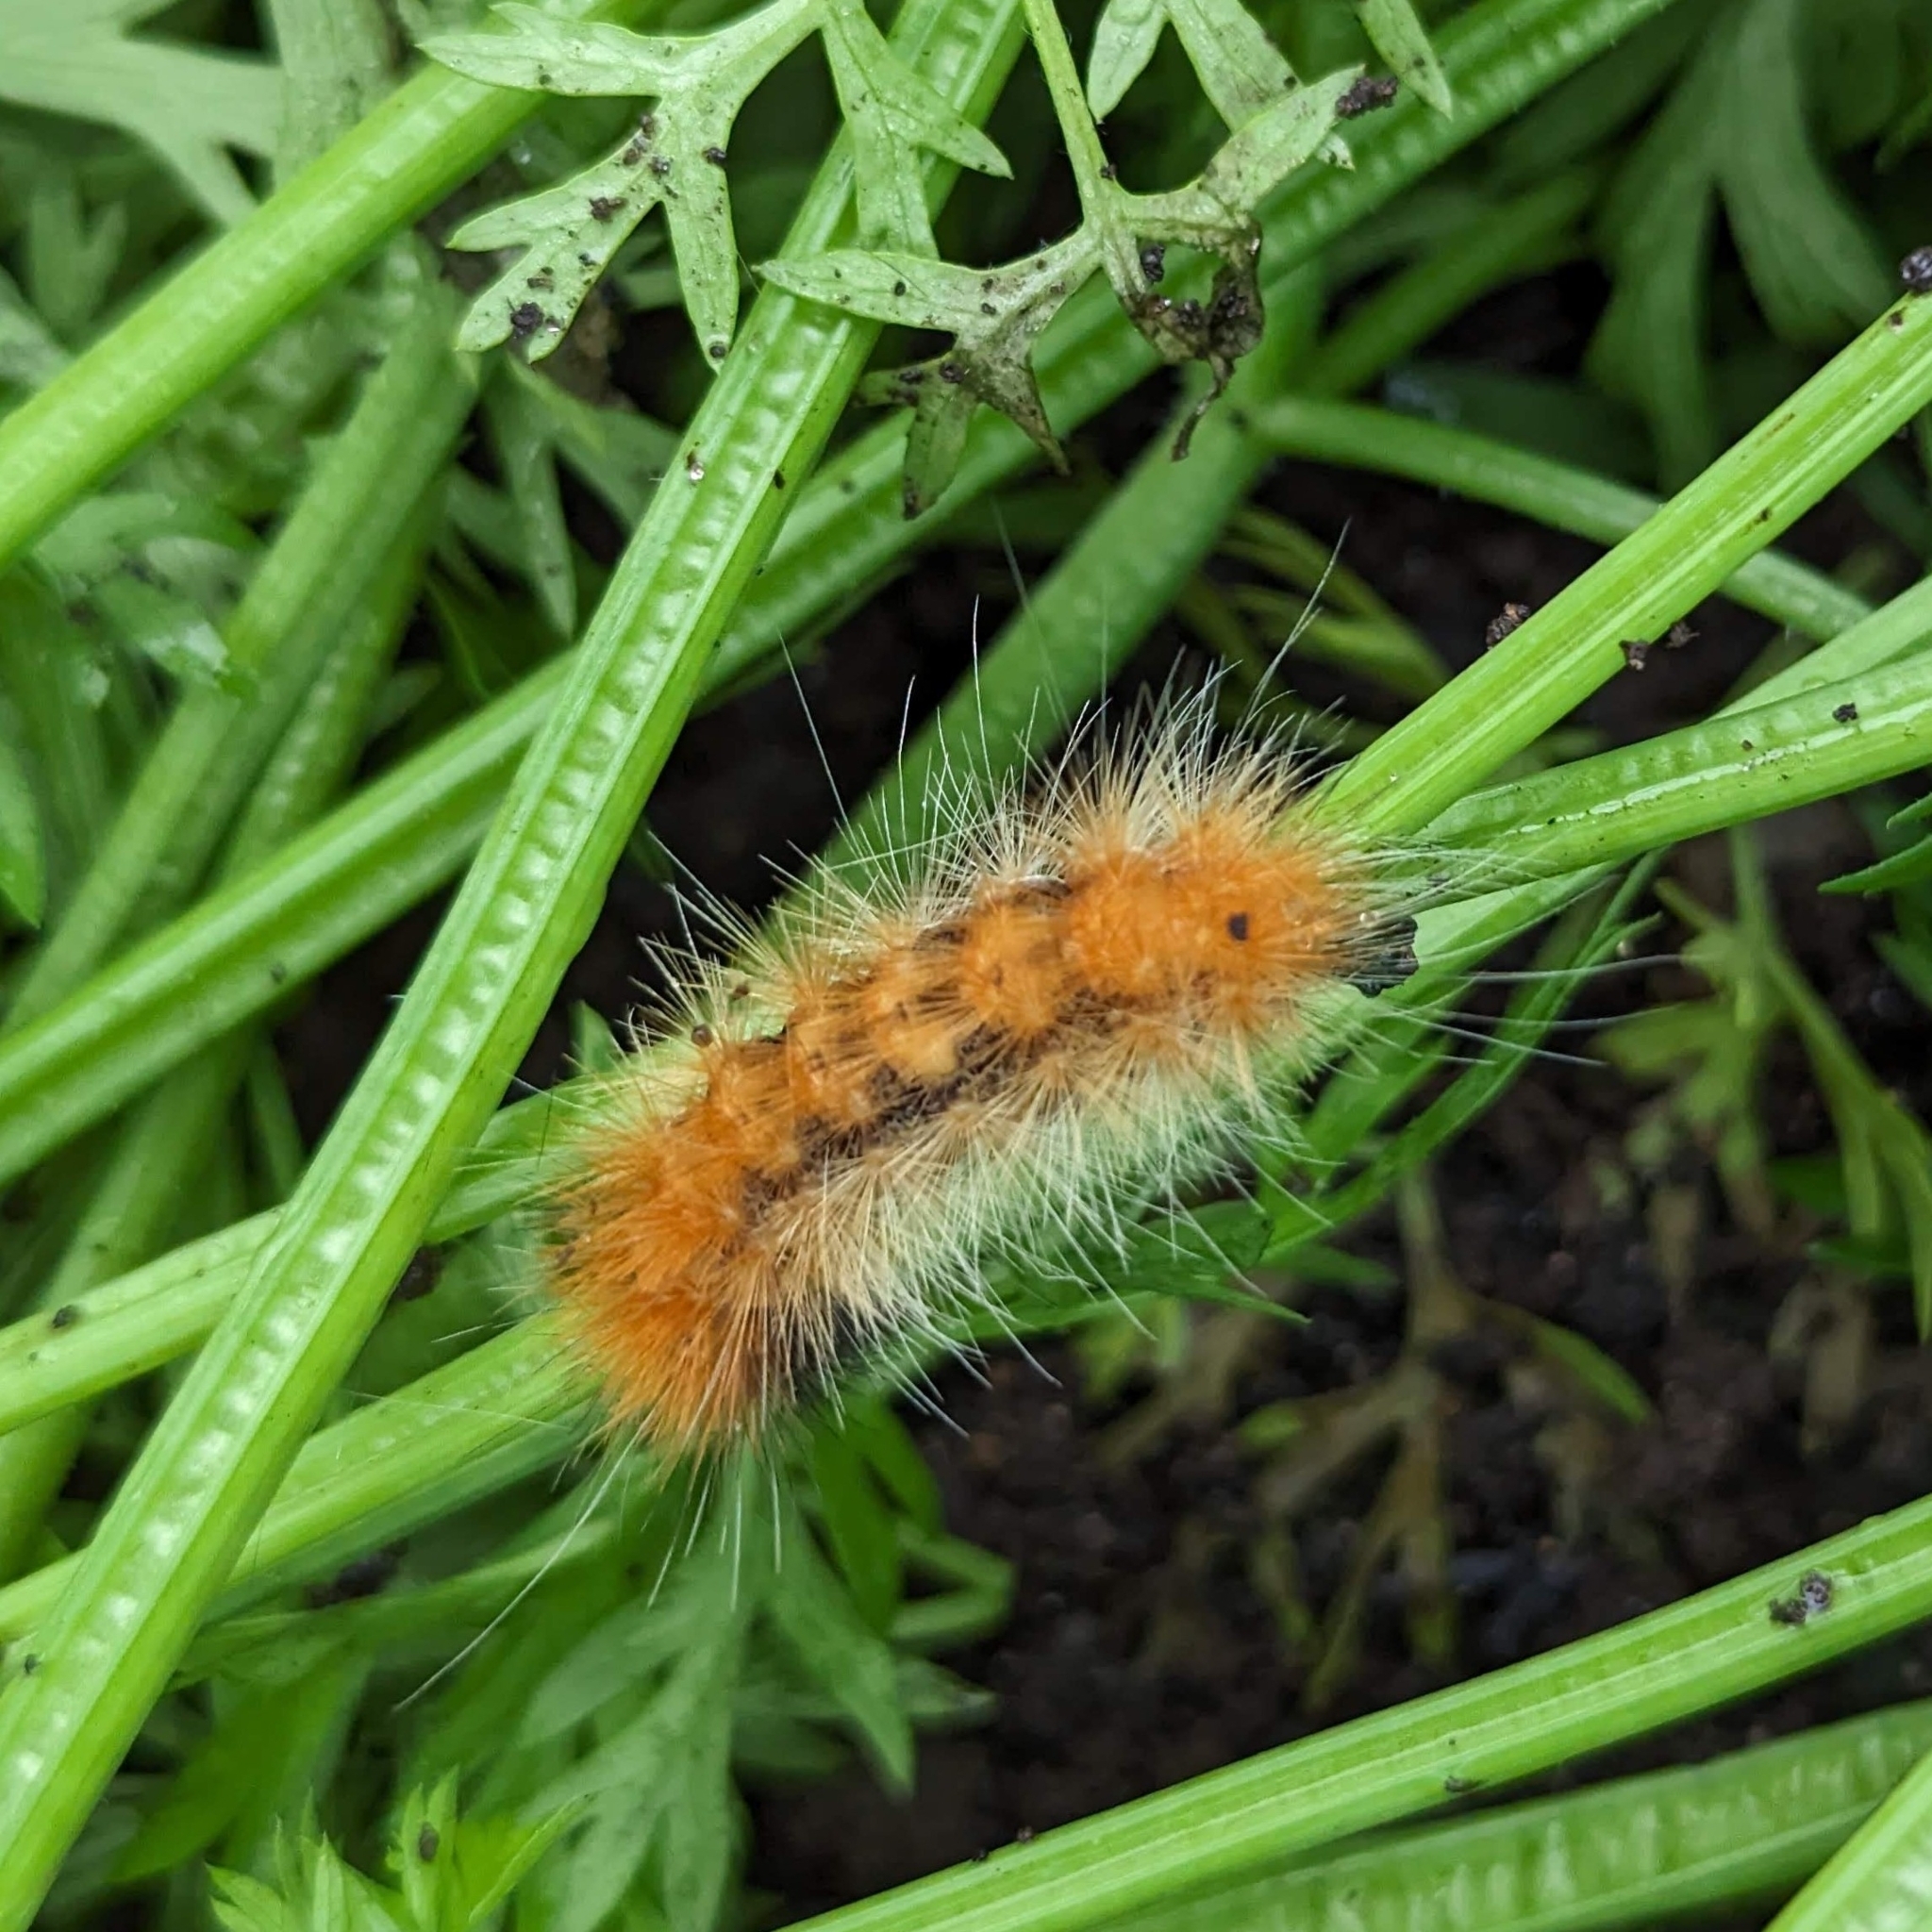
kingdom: Animalia
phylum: Arthropoda
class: Insecta
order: Lepidoptera
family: Erebidae
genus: Spilosoma
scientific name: Spilosoma virginica
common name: Virginia tiger moth
